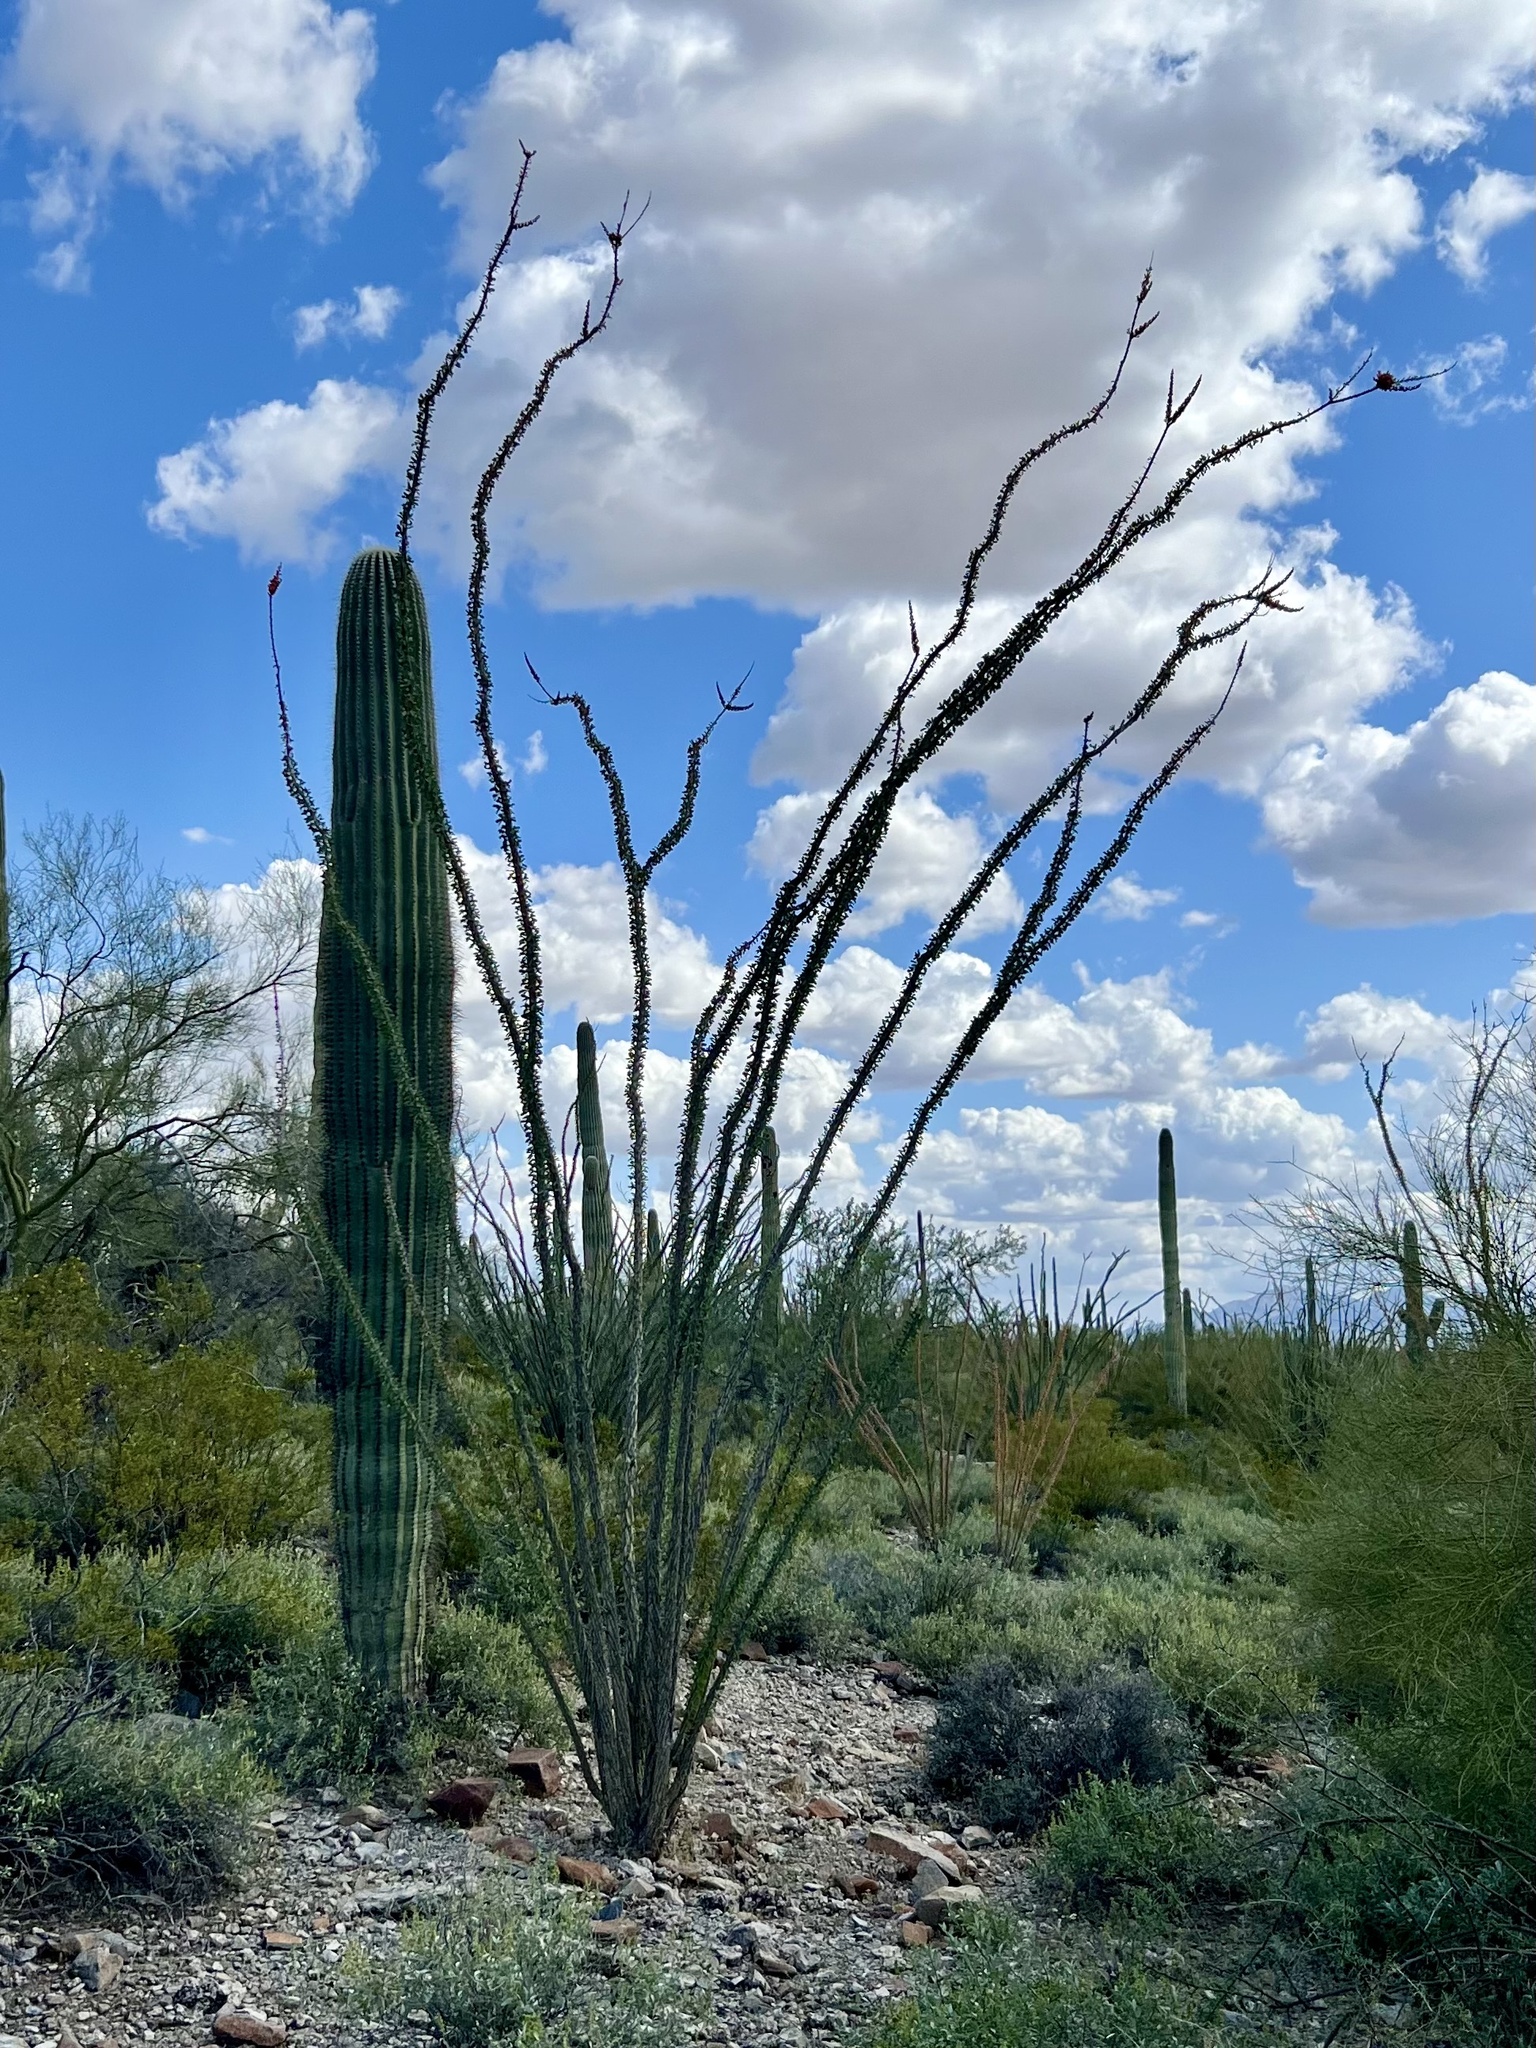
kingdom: Plantae
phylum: Tracheophyta
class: Magnoliopsida
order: Ericales
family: Fouquieriaceae
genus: Fouquieria
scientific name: Fouquieria splendens
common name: Vine-cactus
